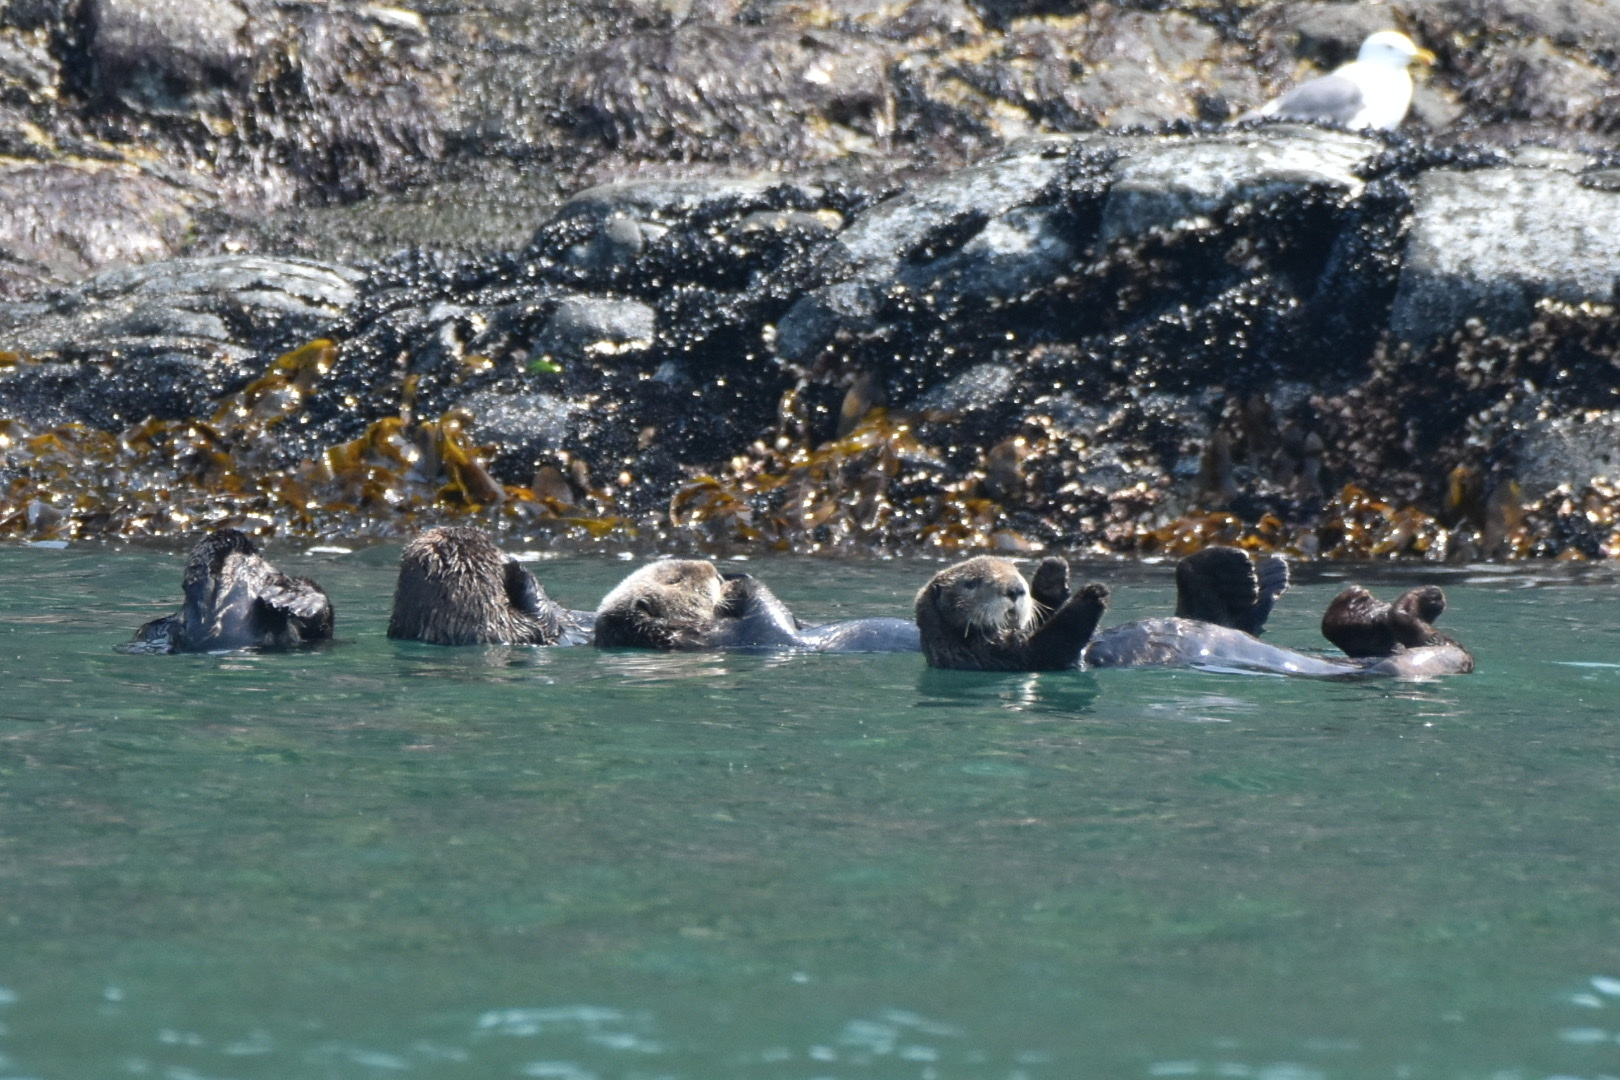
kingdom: Animalia
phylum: Chordata
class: Mammalia
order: Carnivora
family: Mustelidae
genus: Enhydra
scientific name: Enhydra lutris
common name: Sea otter
